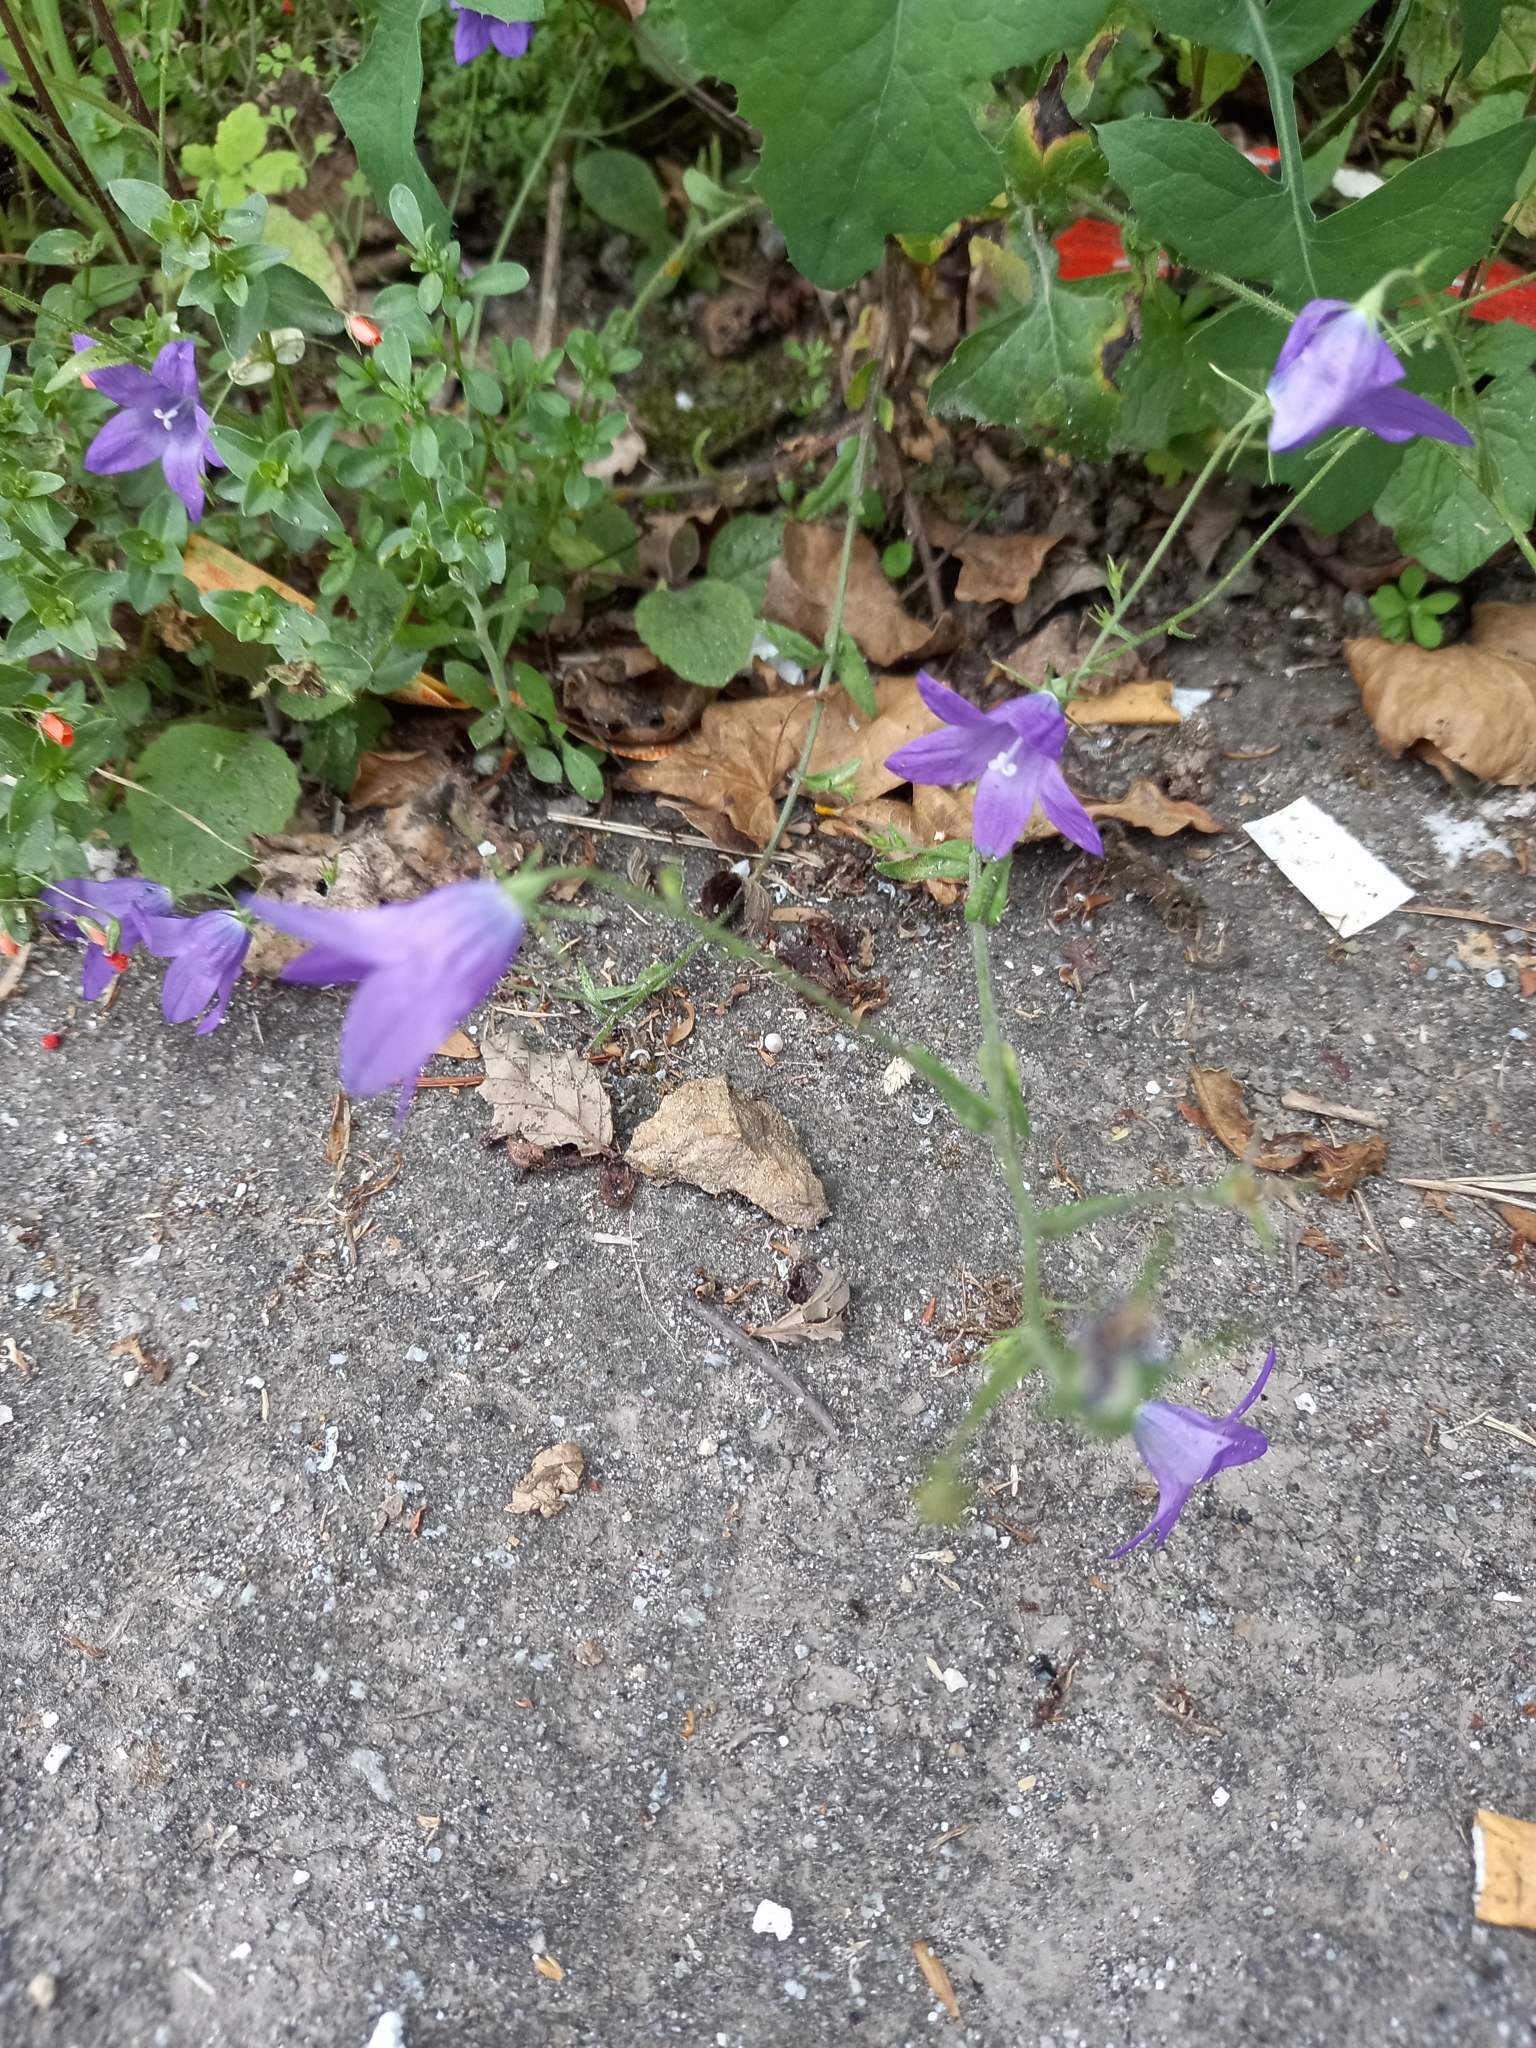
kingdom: Plantae
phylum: Tracheophyta
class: Magnoliopsida
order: Asterales
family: Campanulaceae
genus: Campanula
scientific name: Campanula lusitanica
